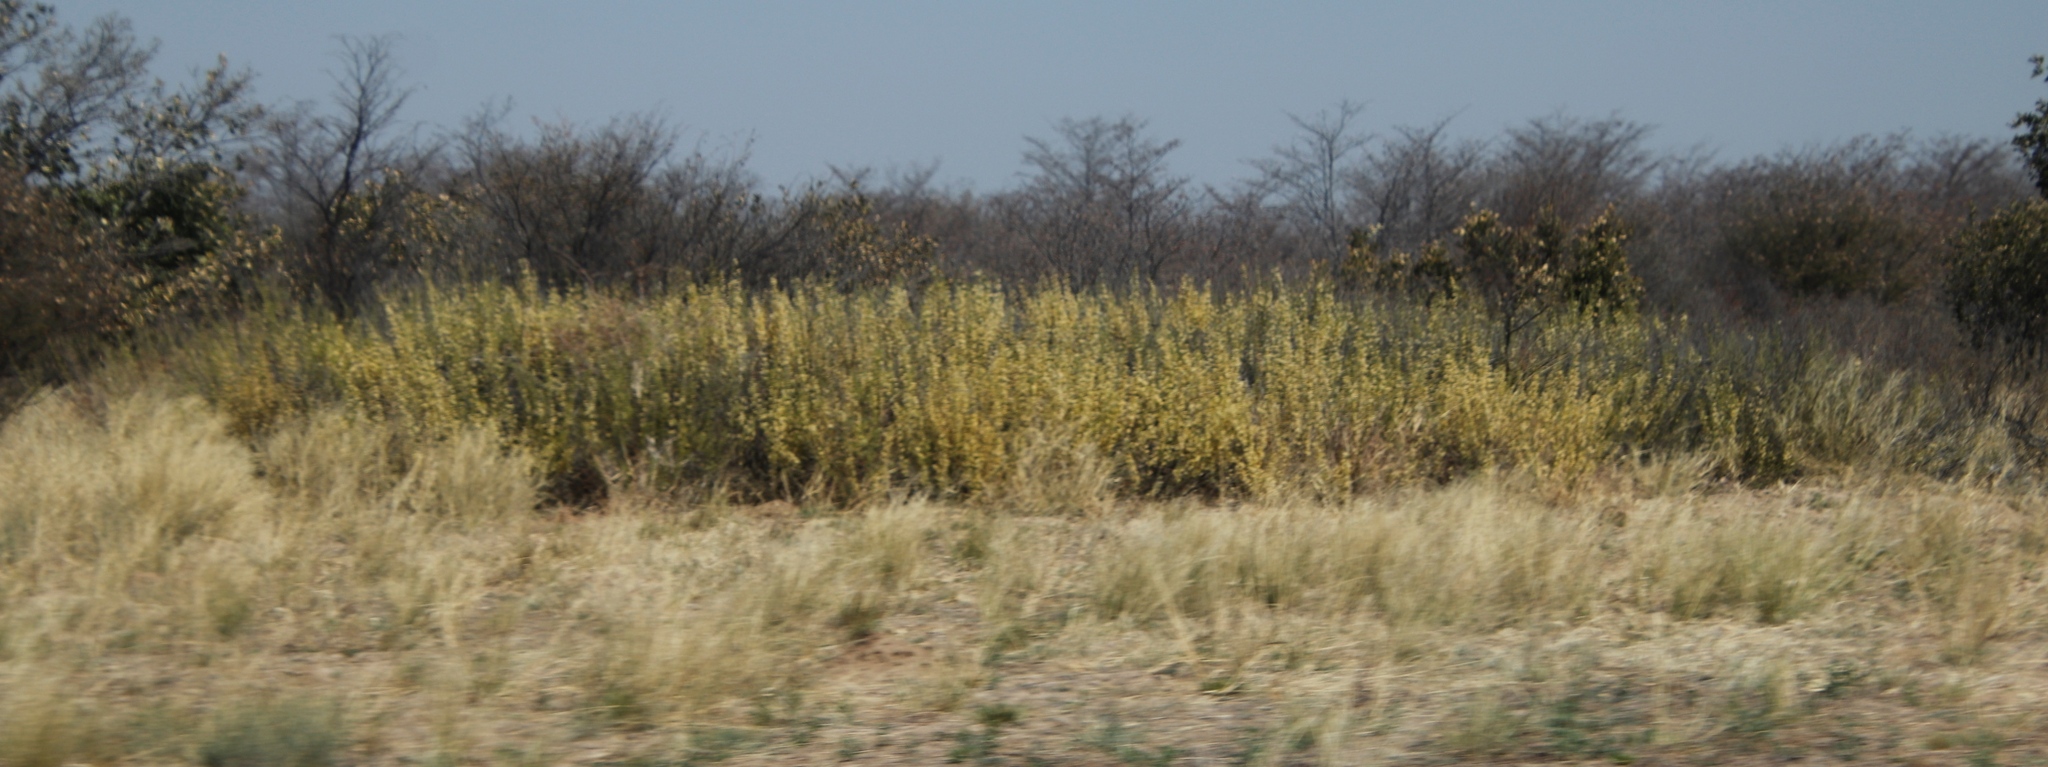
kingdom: Plantae
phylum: Tracheophyta
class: Magnoliopsida
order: Fabales
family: Fabaceae
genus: Vachellia
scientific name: Vachellia hebeclada
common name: Candle thorn
